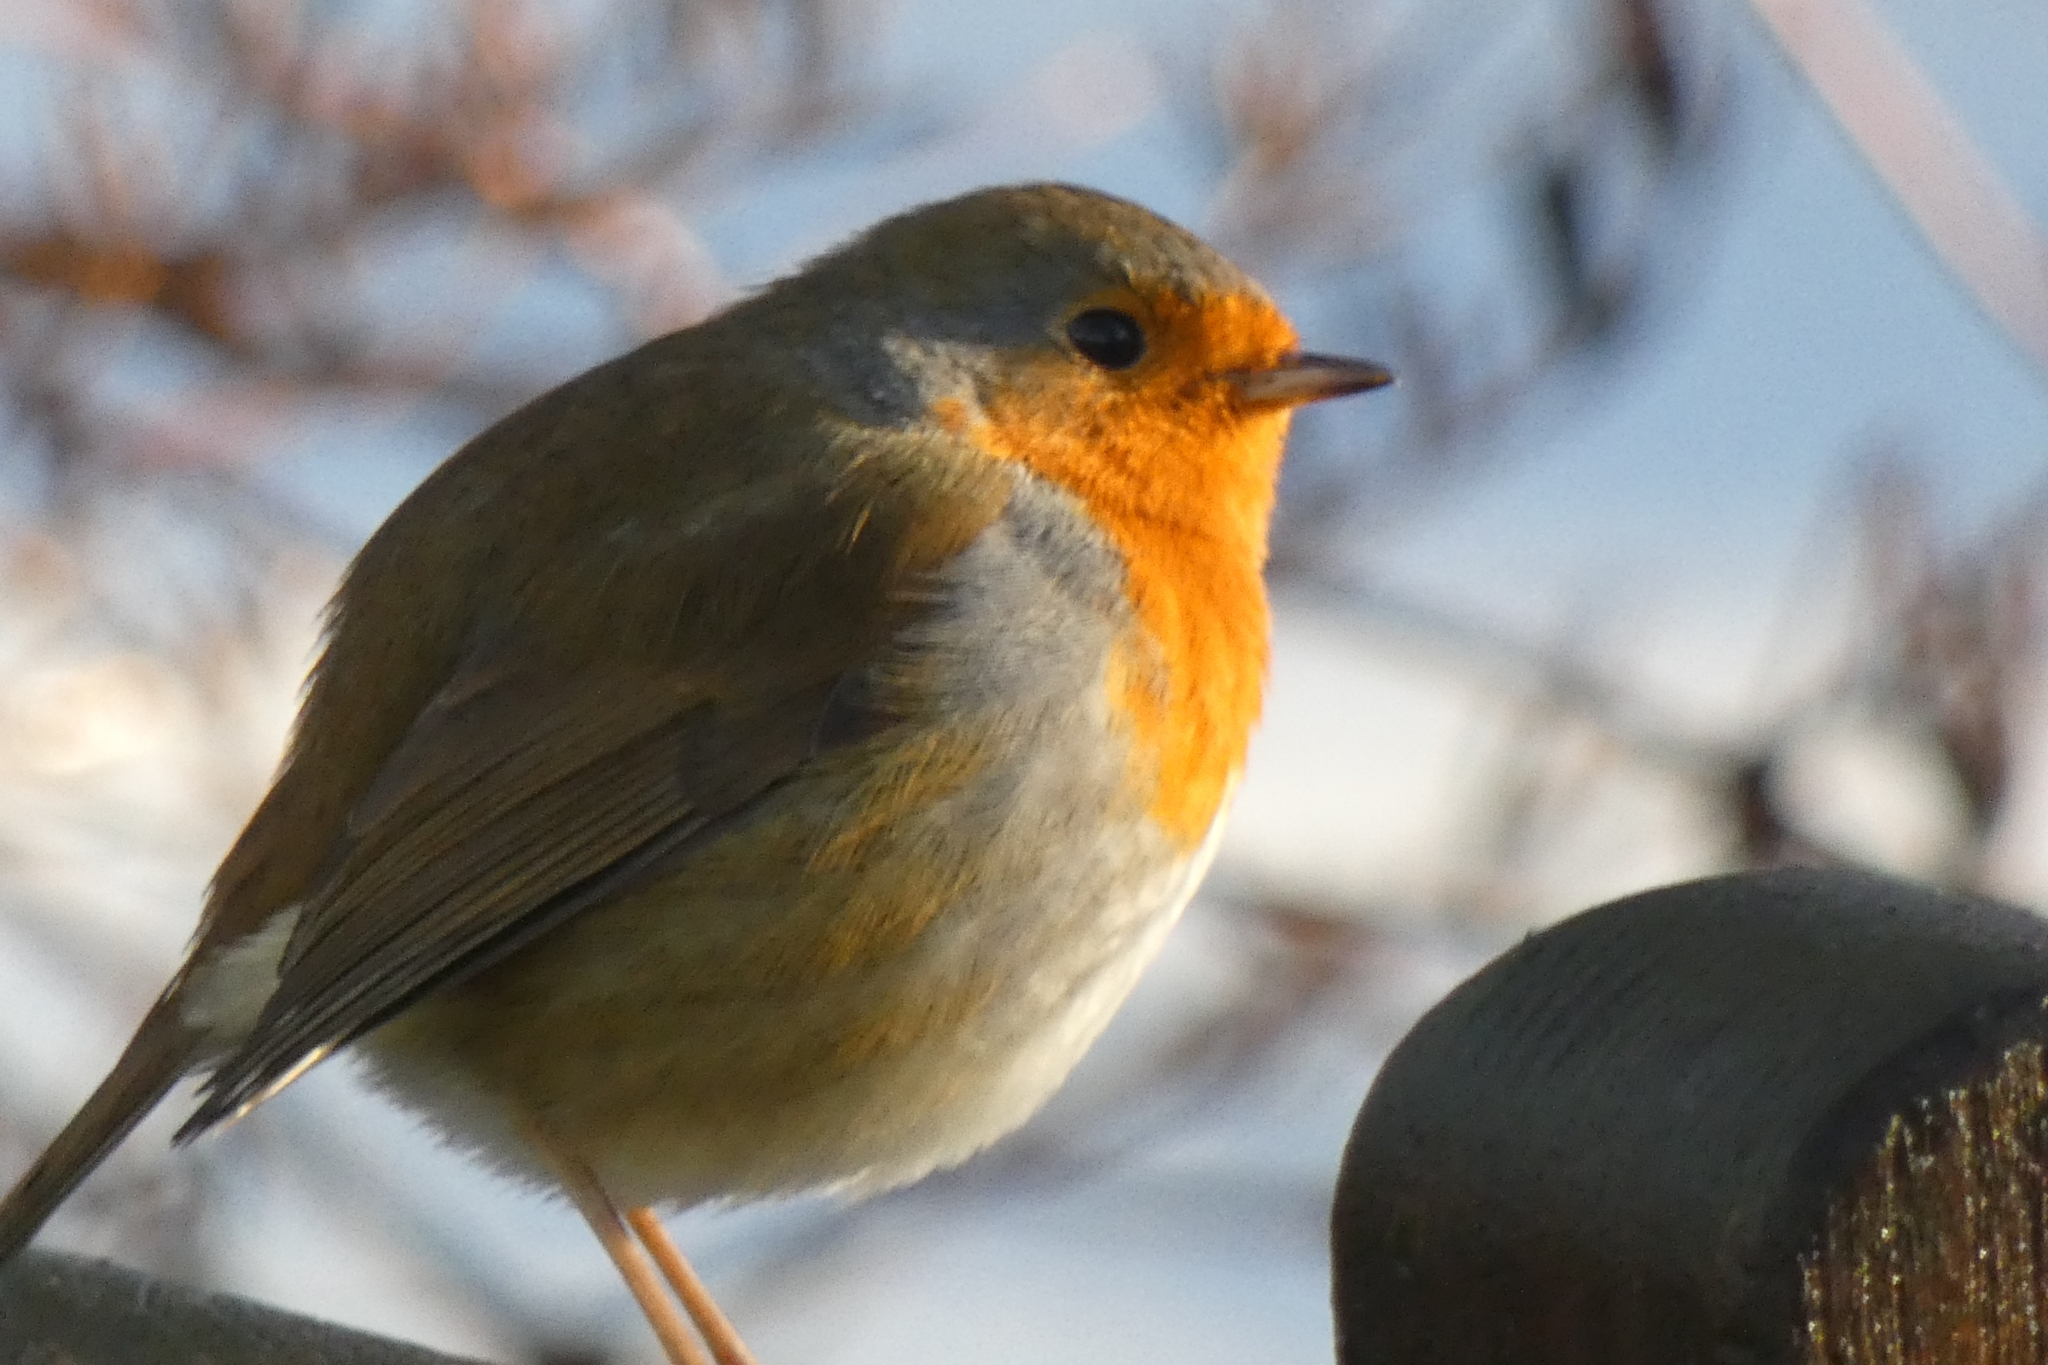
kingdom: Animalia
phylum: Chordata
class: Aves
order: Passeriformes
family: Muscicapidae
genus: Erithacus
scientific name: Erithacus rubecula
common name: European robin
